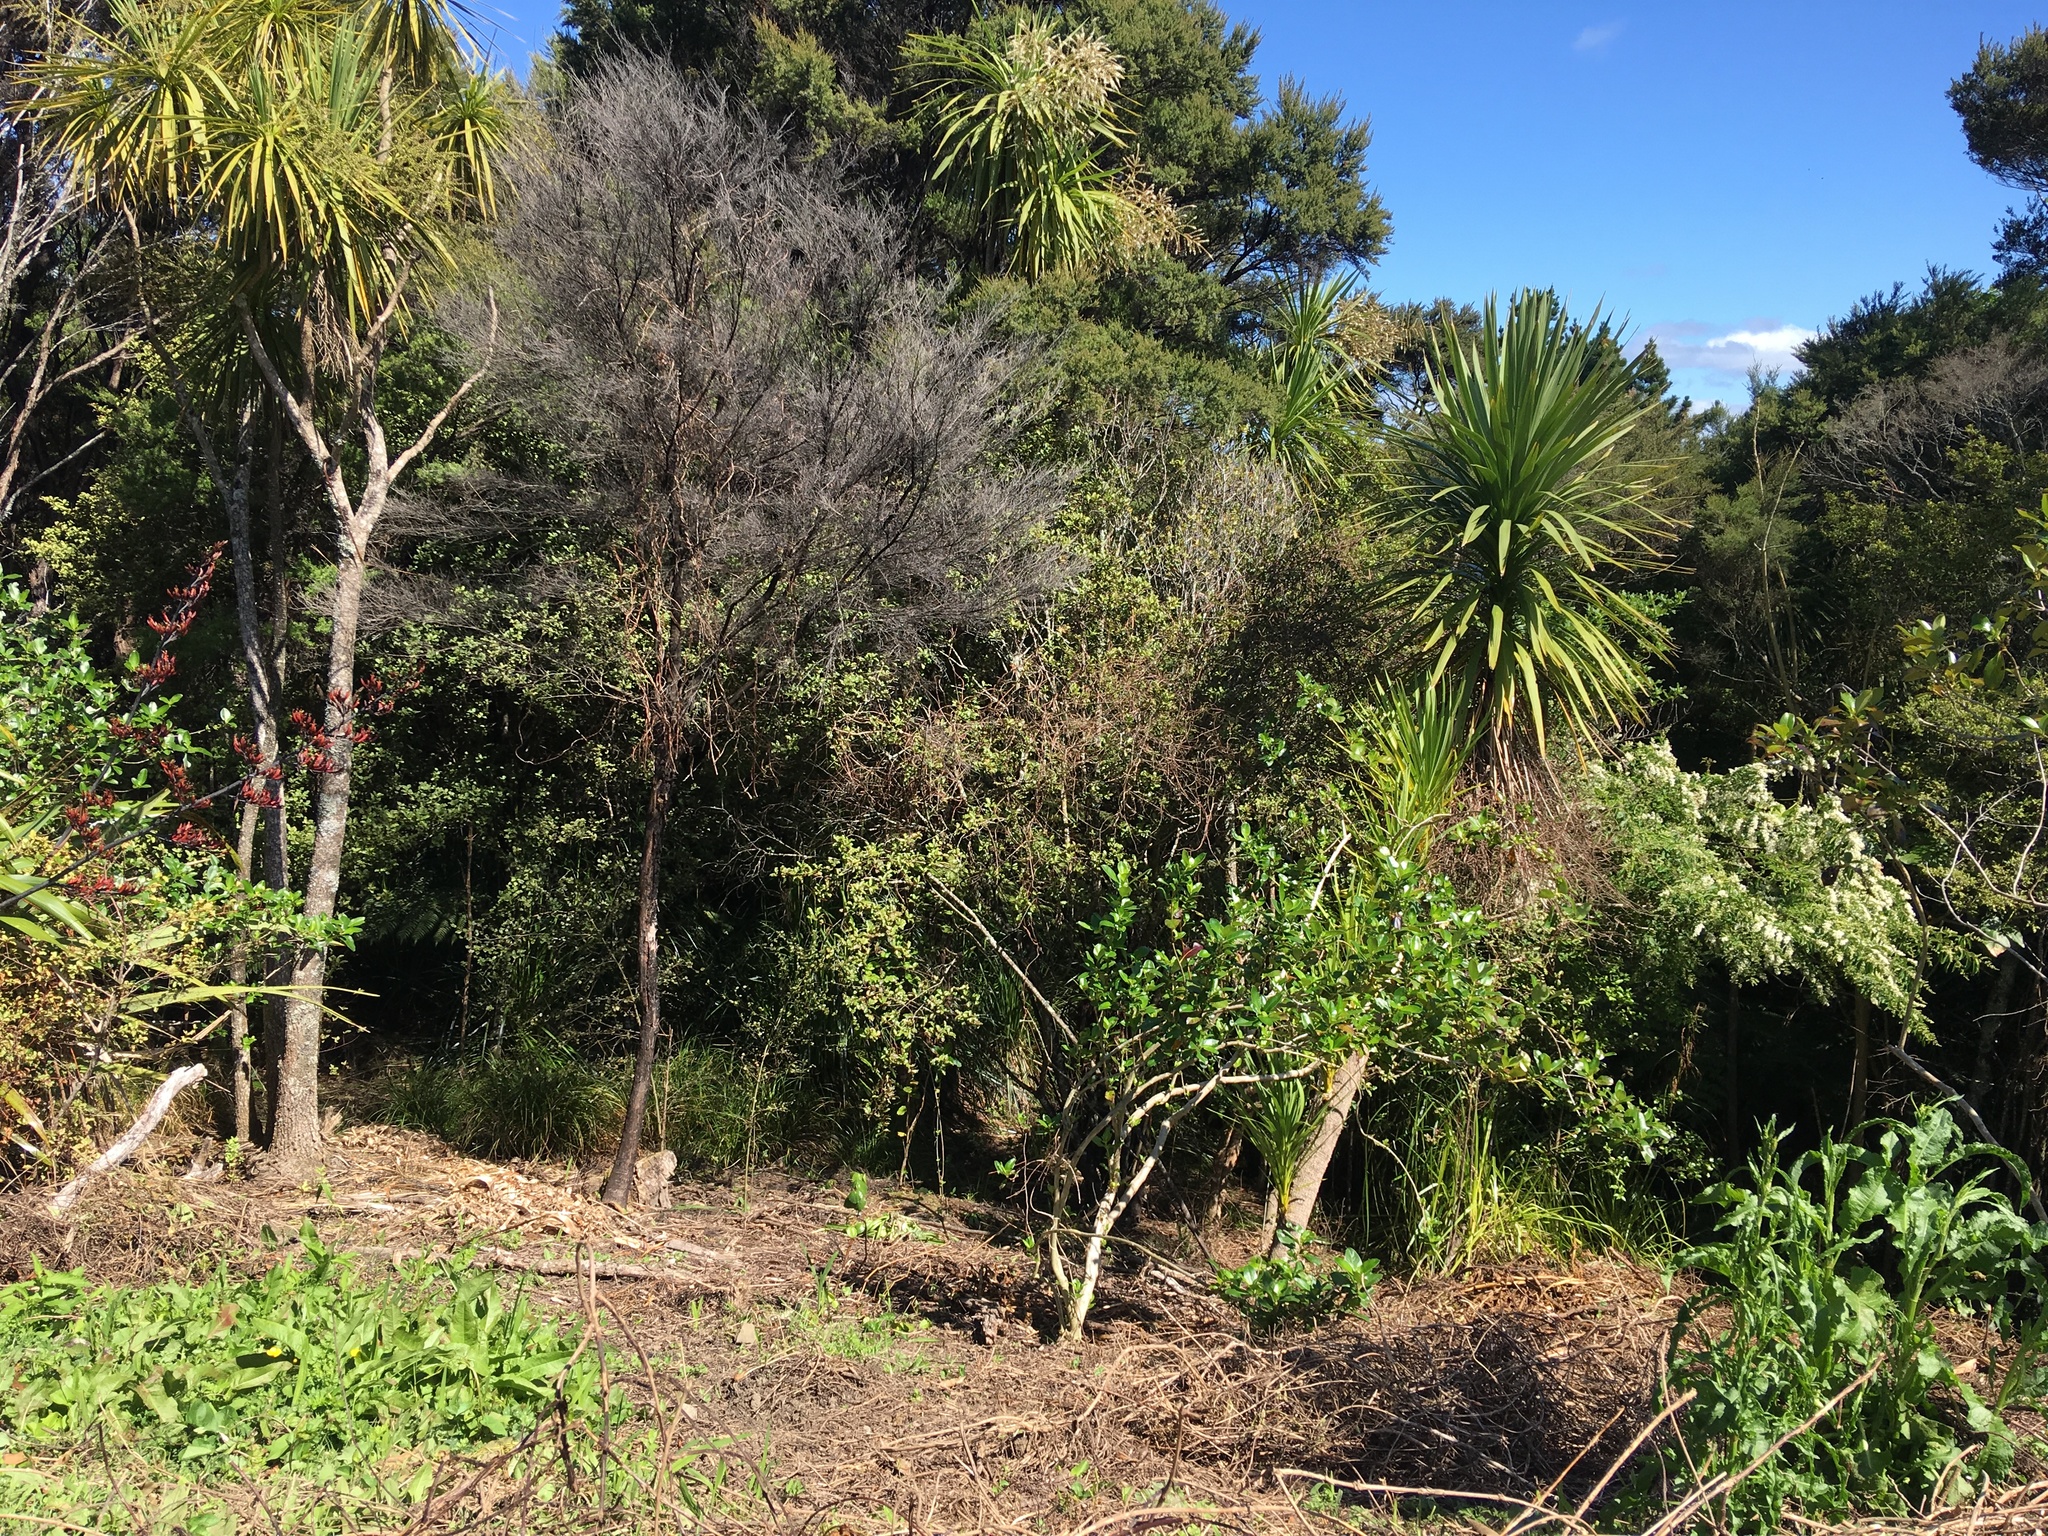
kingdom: Plantae
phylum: Tracheophyta
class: Magnoliopsida
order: Gentianales
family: Rubiaceae
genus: Coprosma
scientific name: Coprosma robusta
